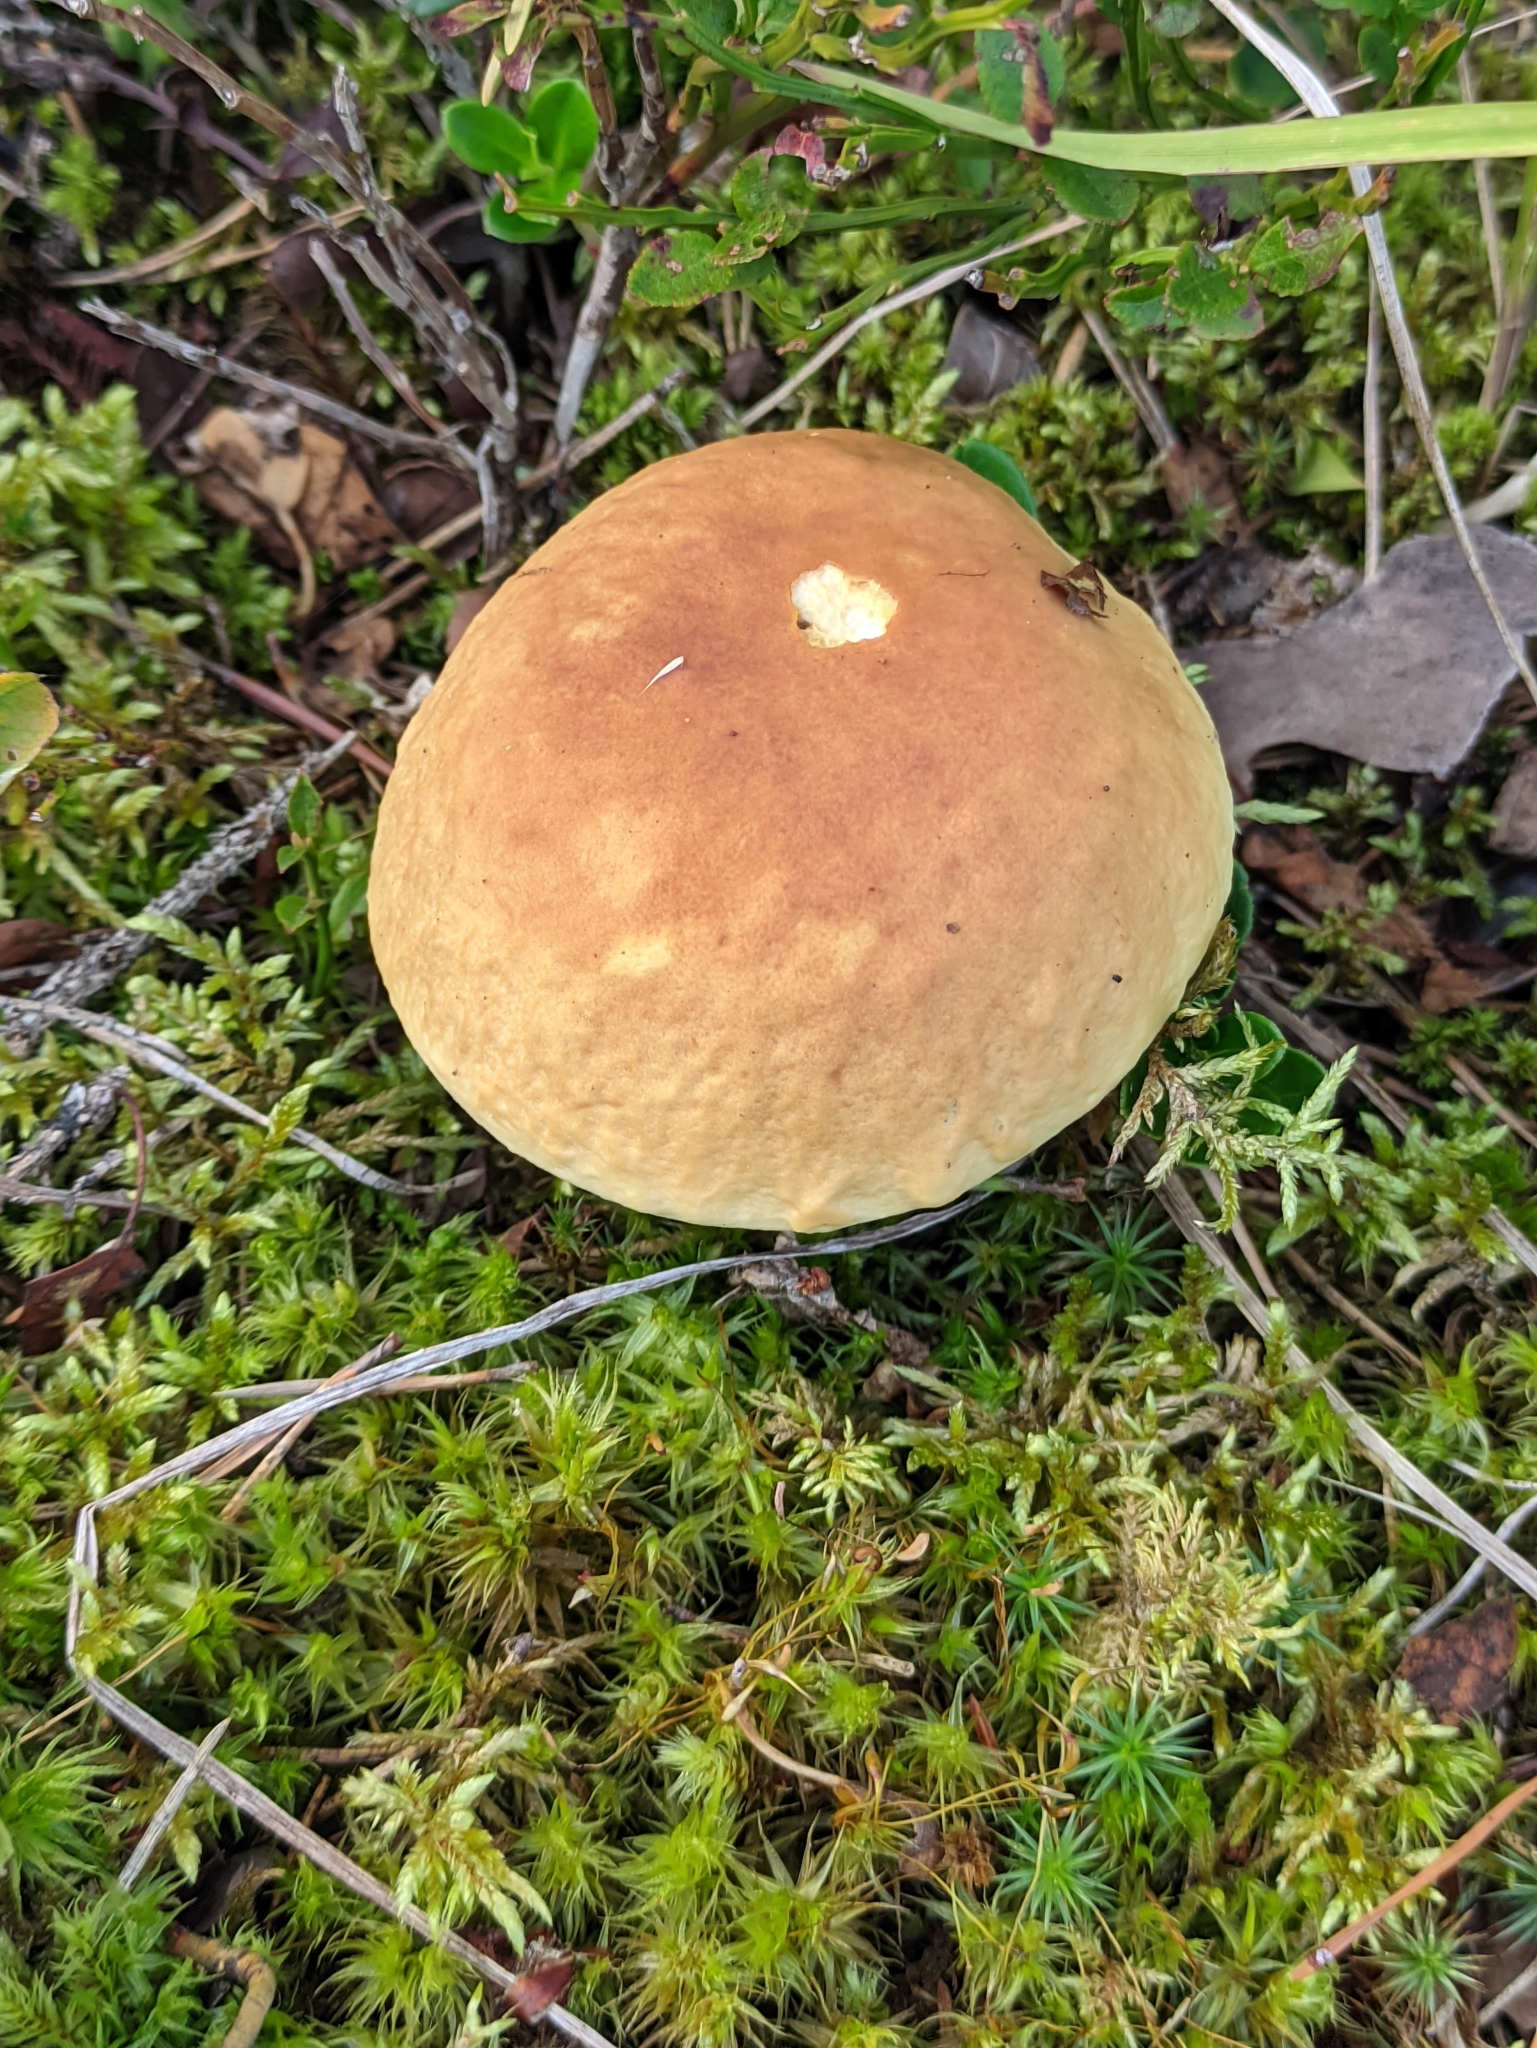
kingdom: Fungi
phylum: Basidiomycota
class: Agaricomycetes
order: Boletales
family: Boletaceae
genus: Boletus
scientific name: Boletus edulis
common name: Cep
